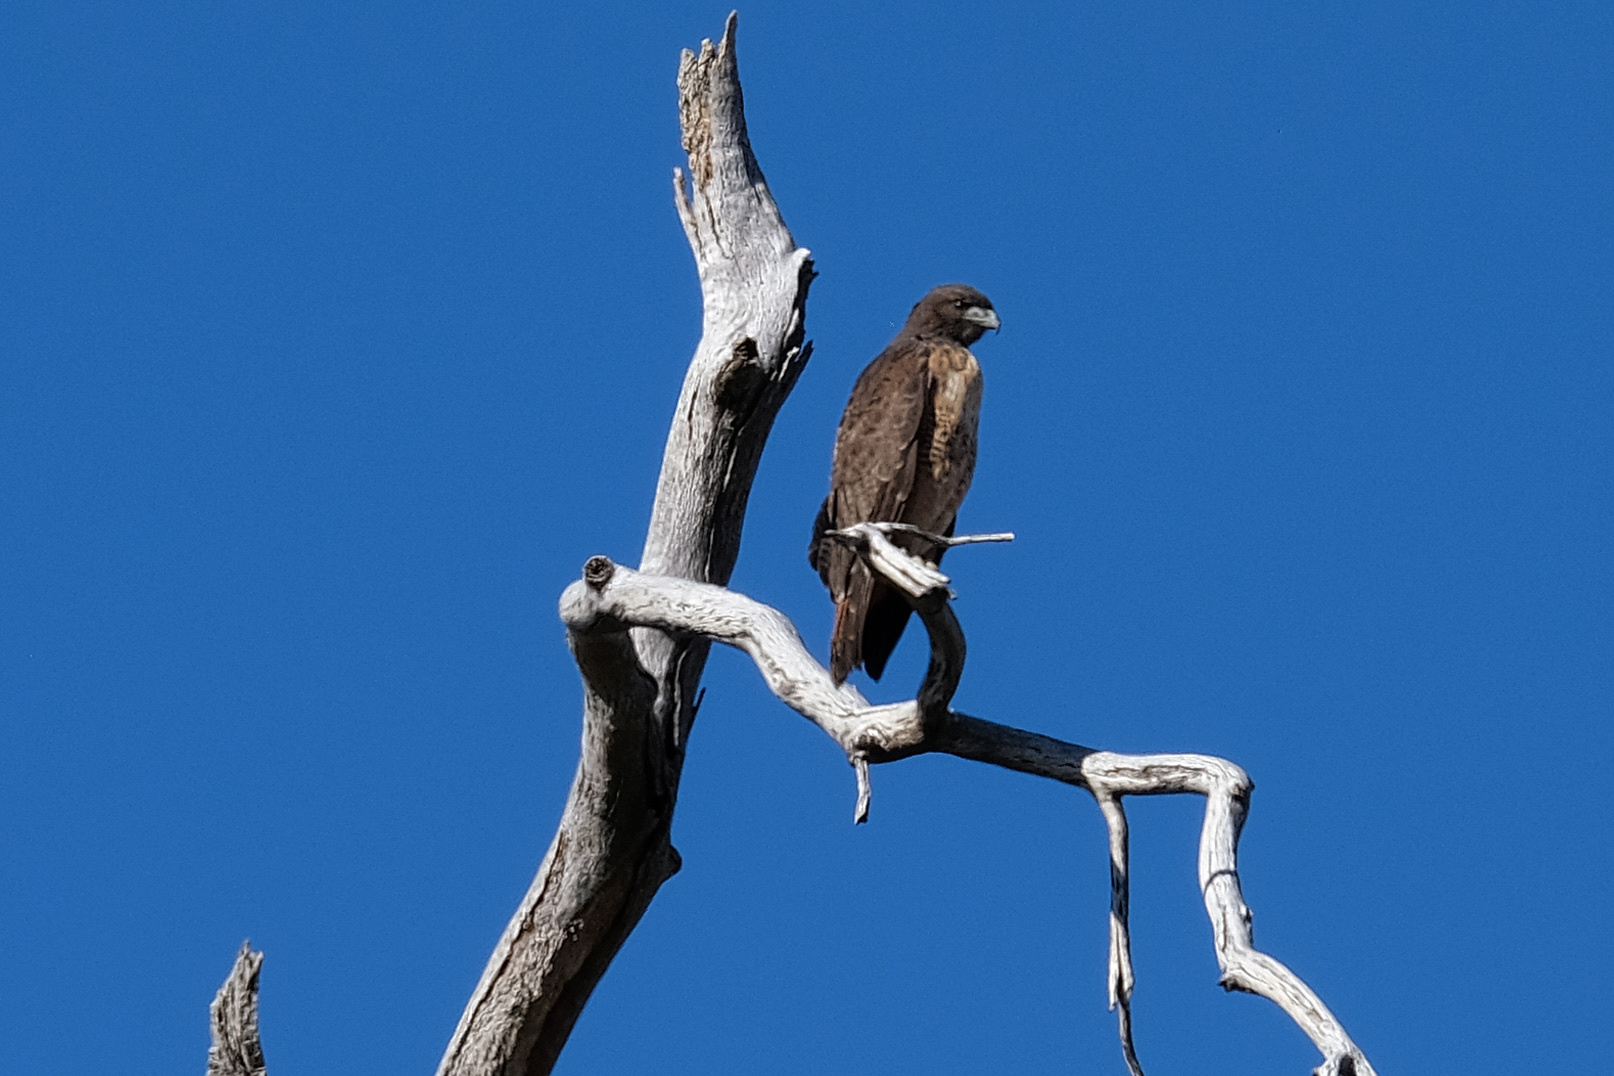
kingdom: Animalia
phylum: Chordata
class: Aves
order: Accipitriformes
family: Accipitridae
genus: Buteo
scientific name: Buteo jamaicensis
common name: Red-tailed hawk
